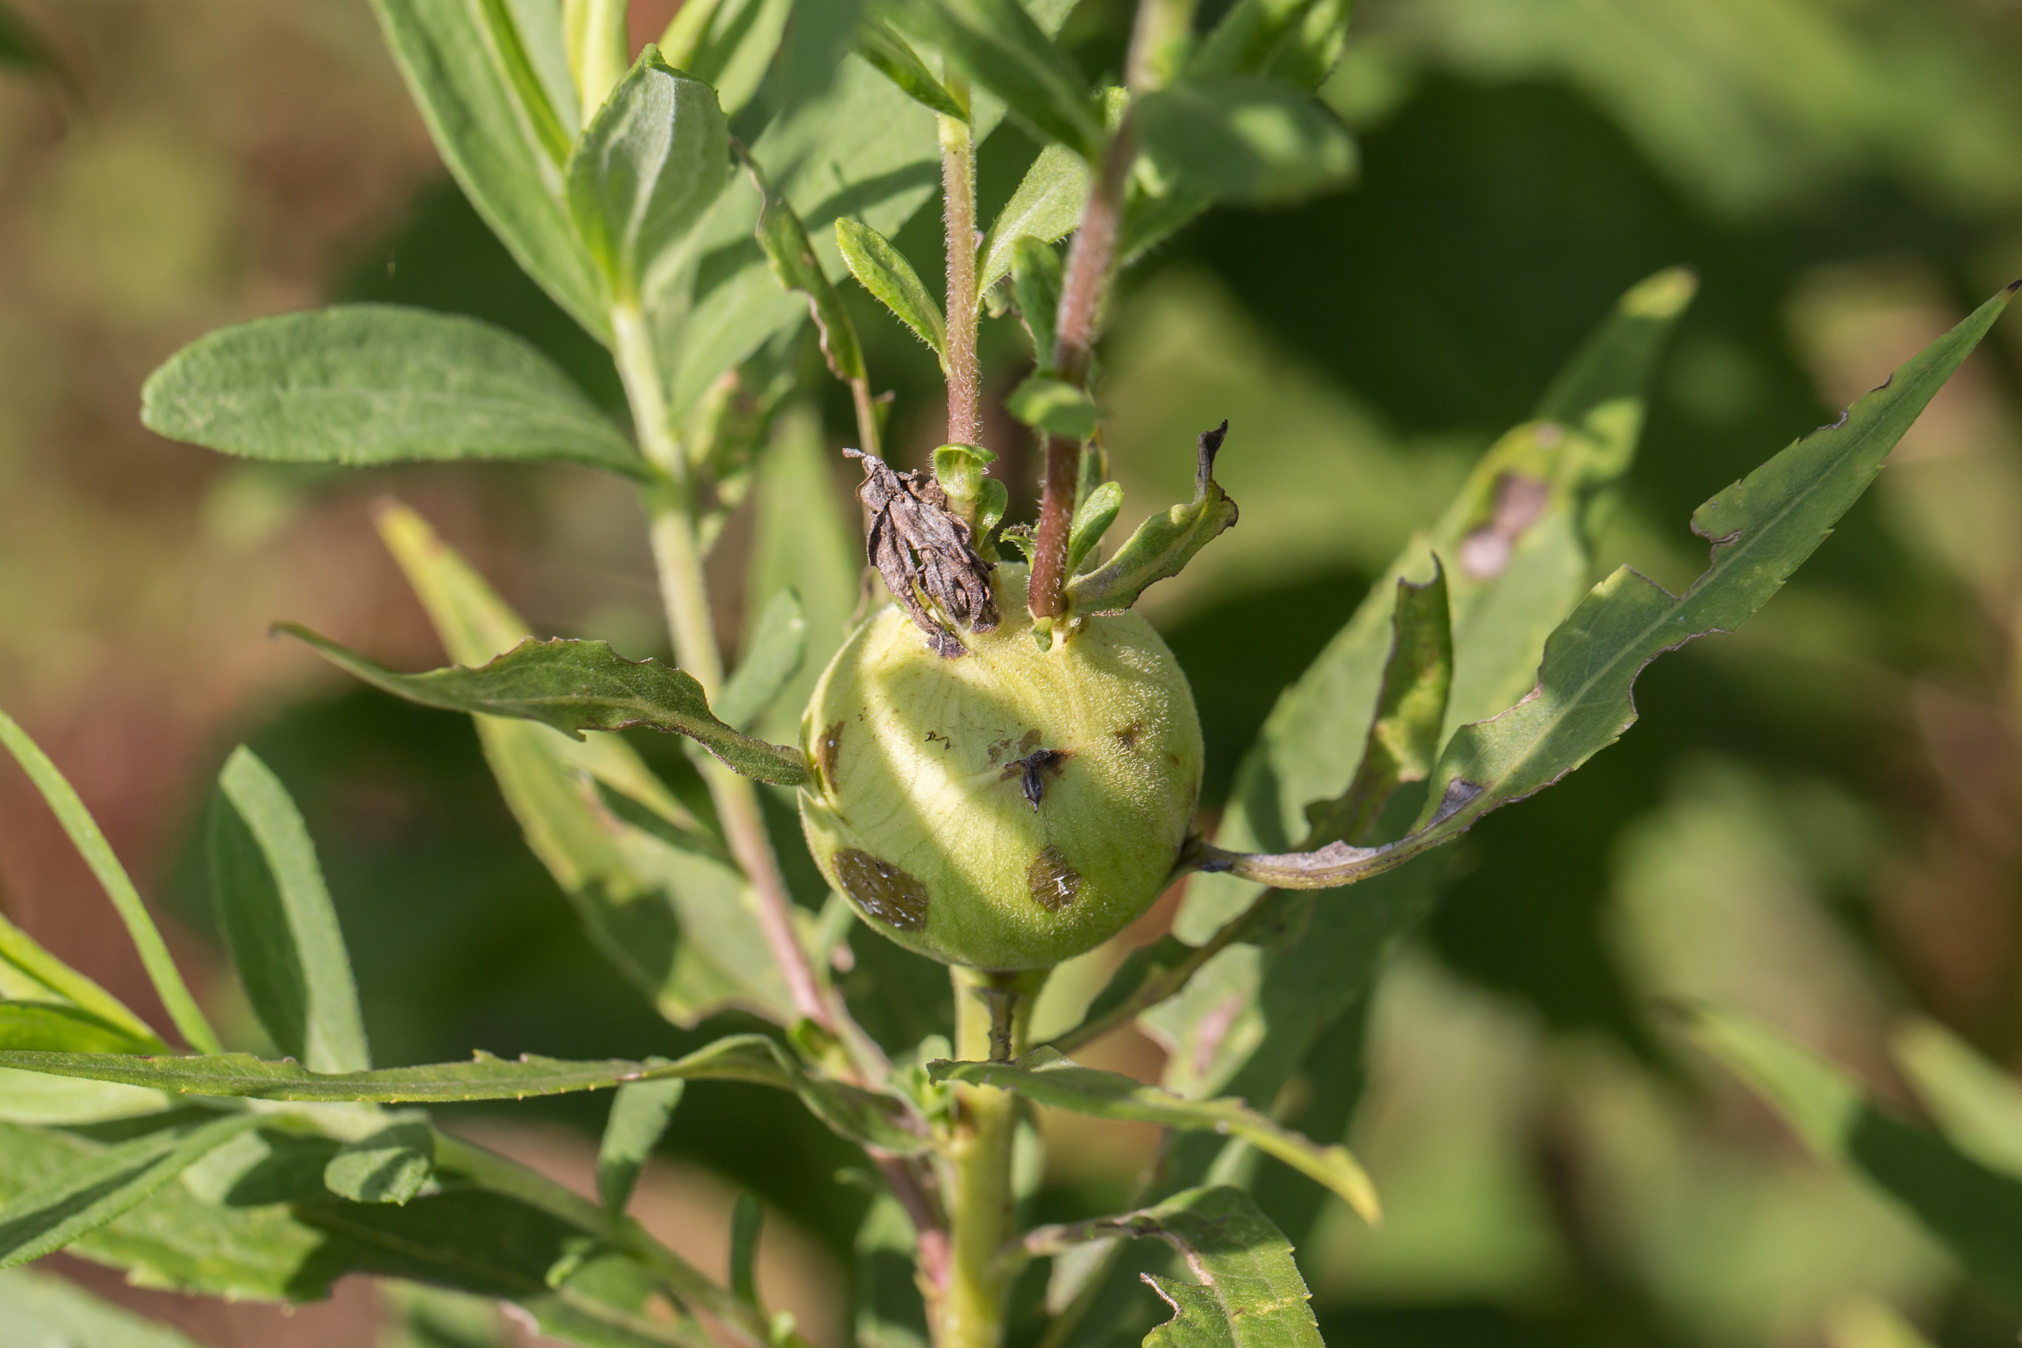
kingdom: Animalia
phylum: Arthropoda
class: Insecta
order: Diptera
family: Tephritidae
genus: Eurosta
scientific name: Eurosta solidaginis
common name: Goldenrod gall fly
